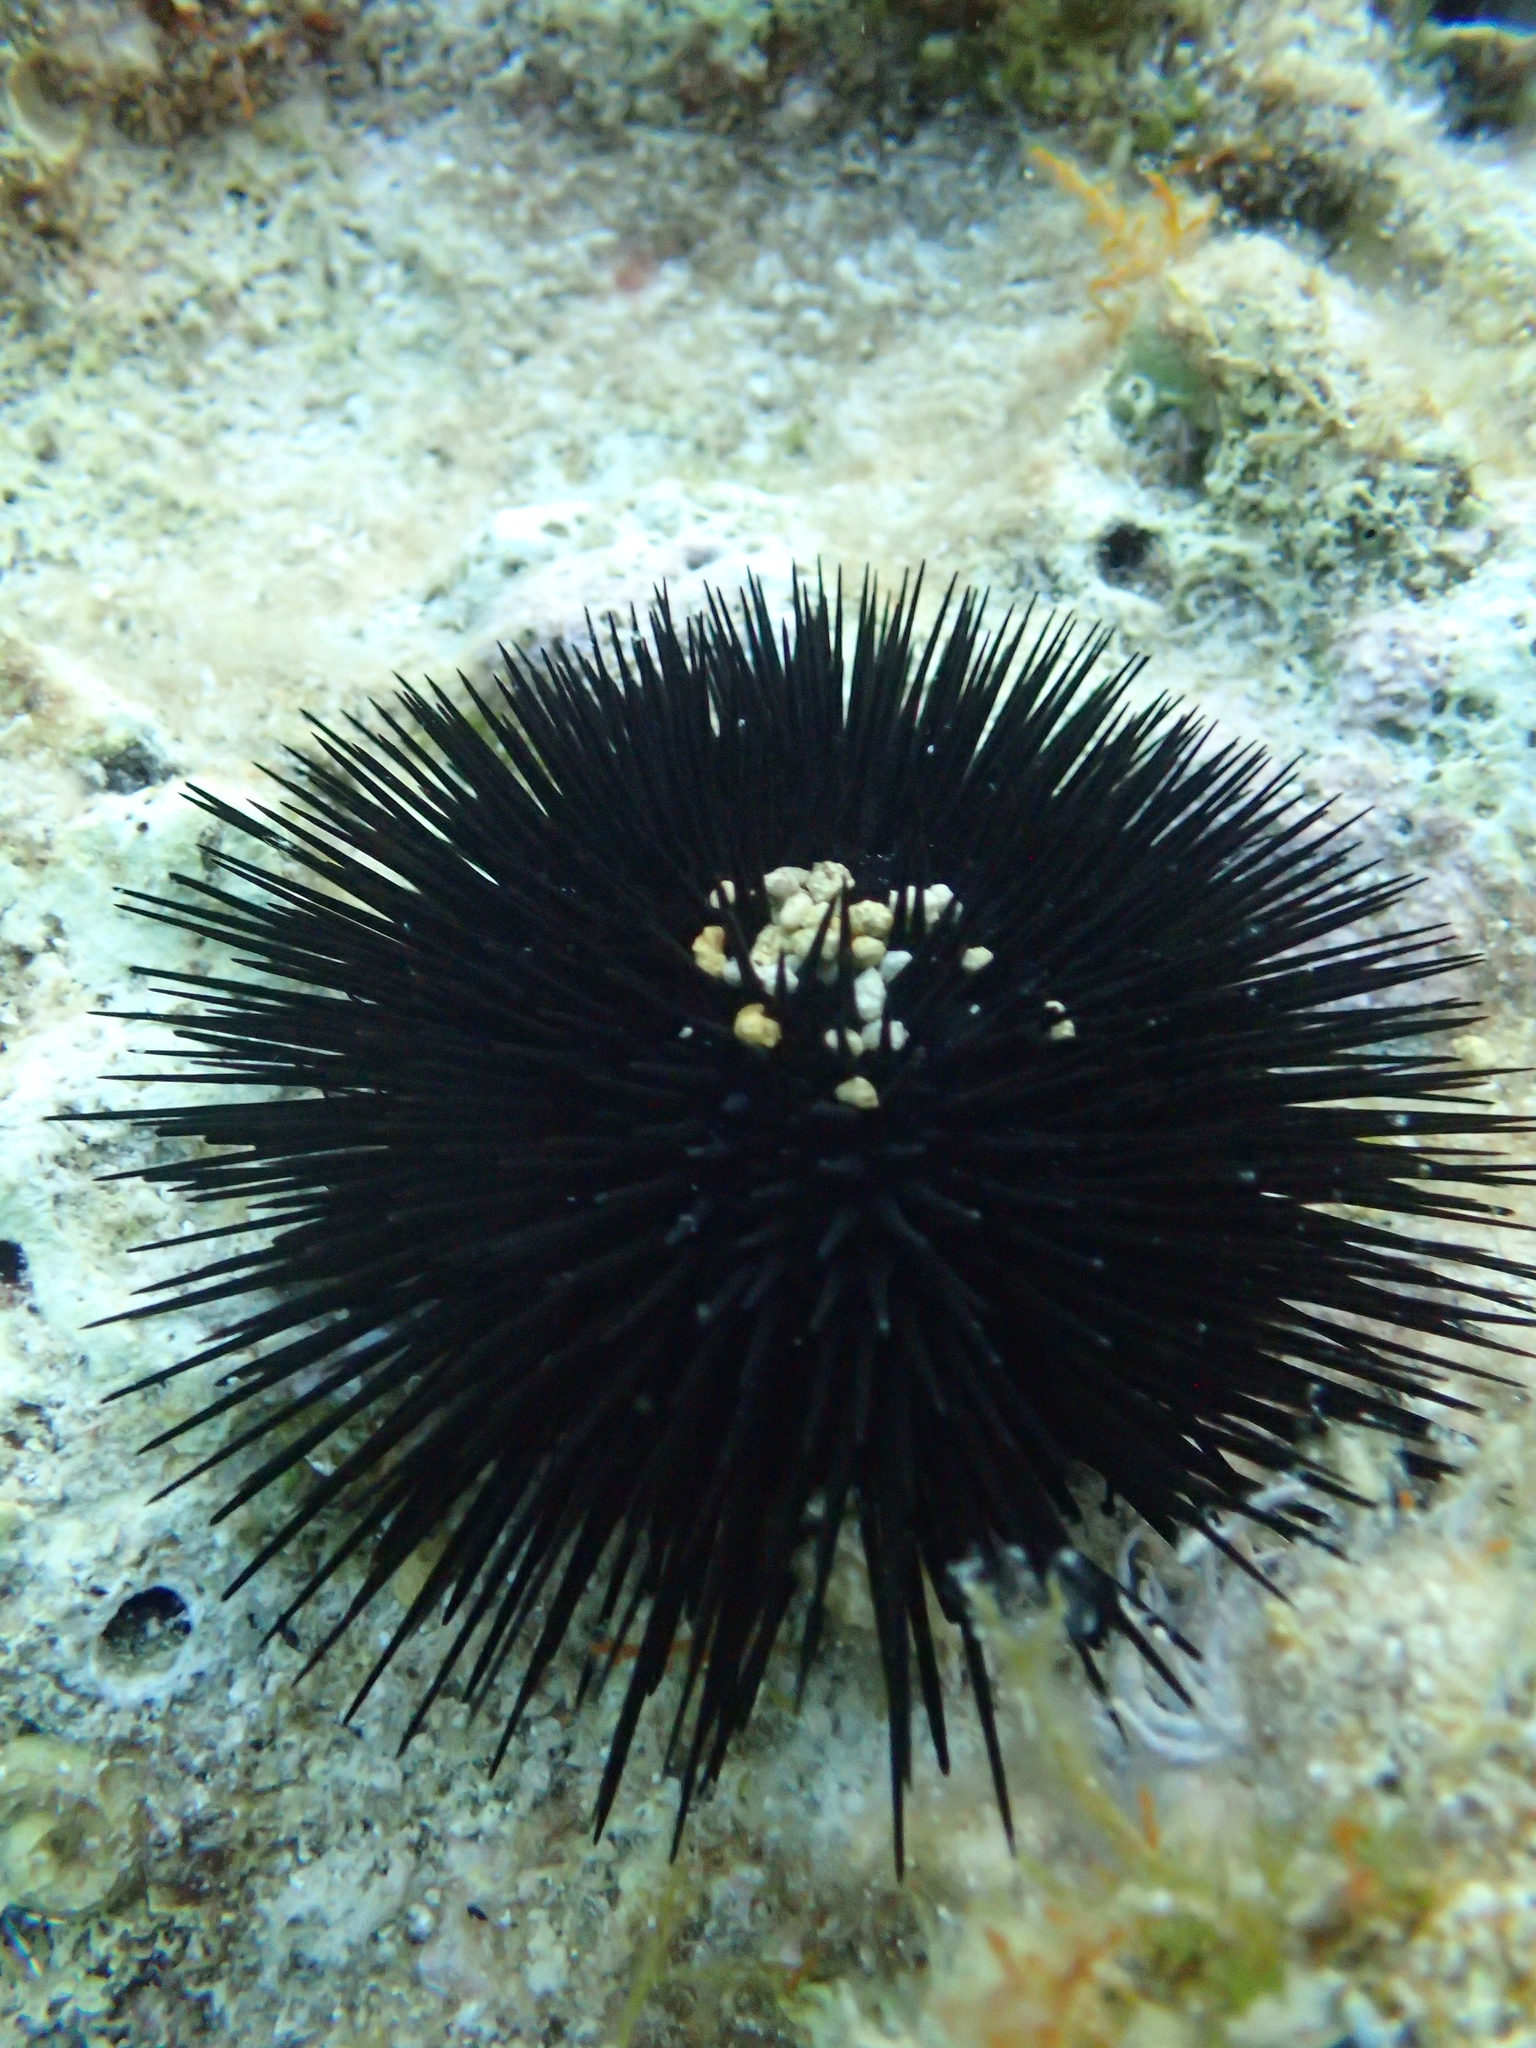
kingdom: Animalia
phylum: Echinodermata
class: Echinoidea
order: Arbacioida
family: Arbaciidae
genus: Arbacia
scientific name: Arbacia lixula
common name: Black sea urchin
